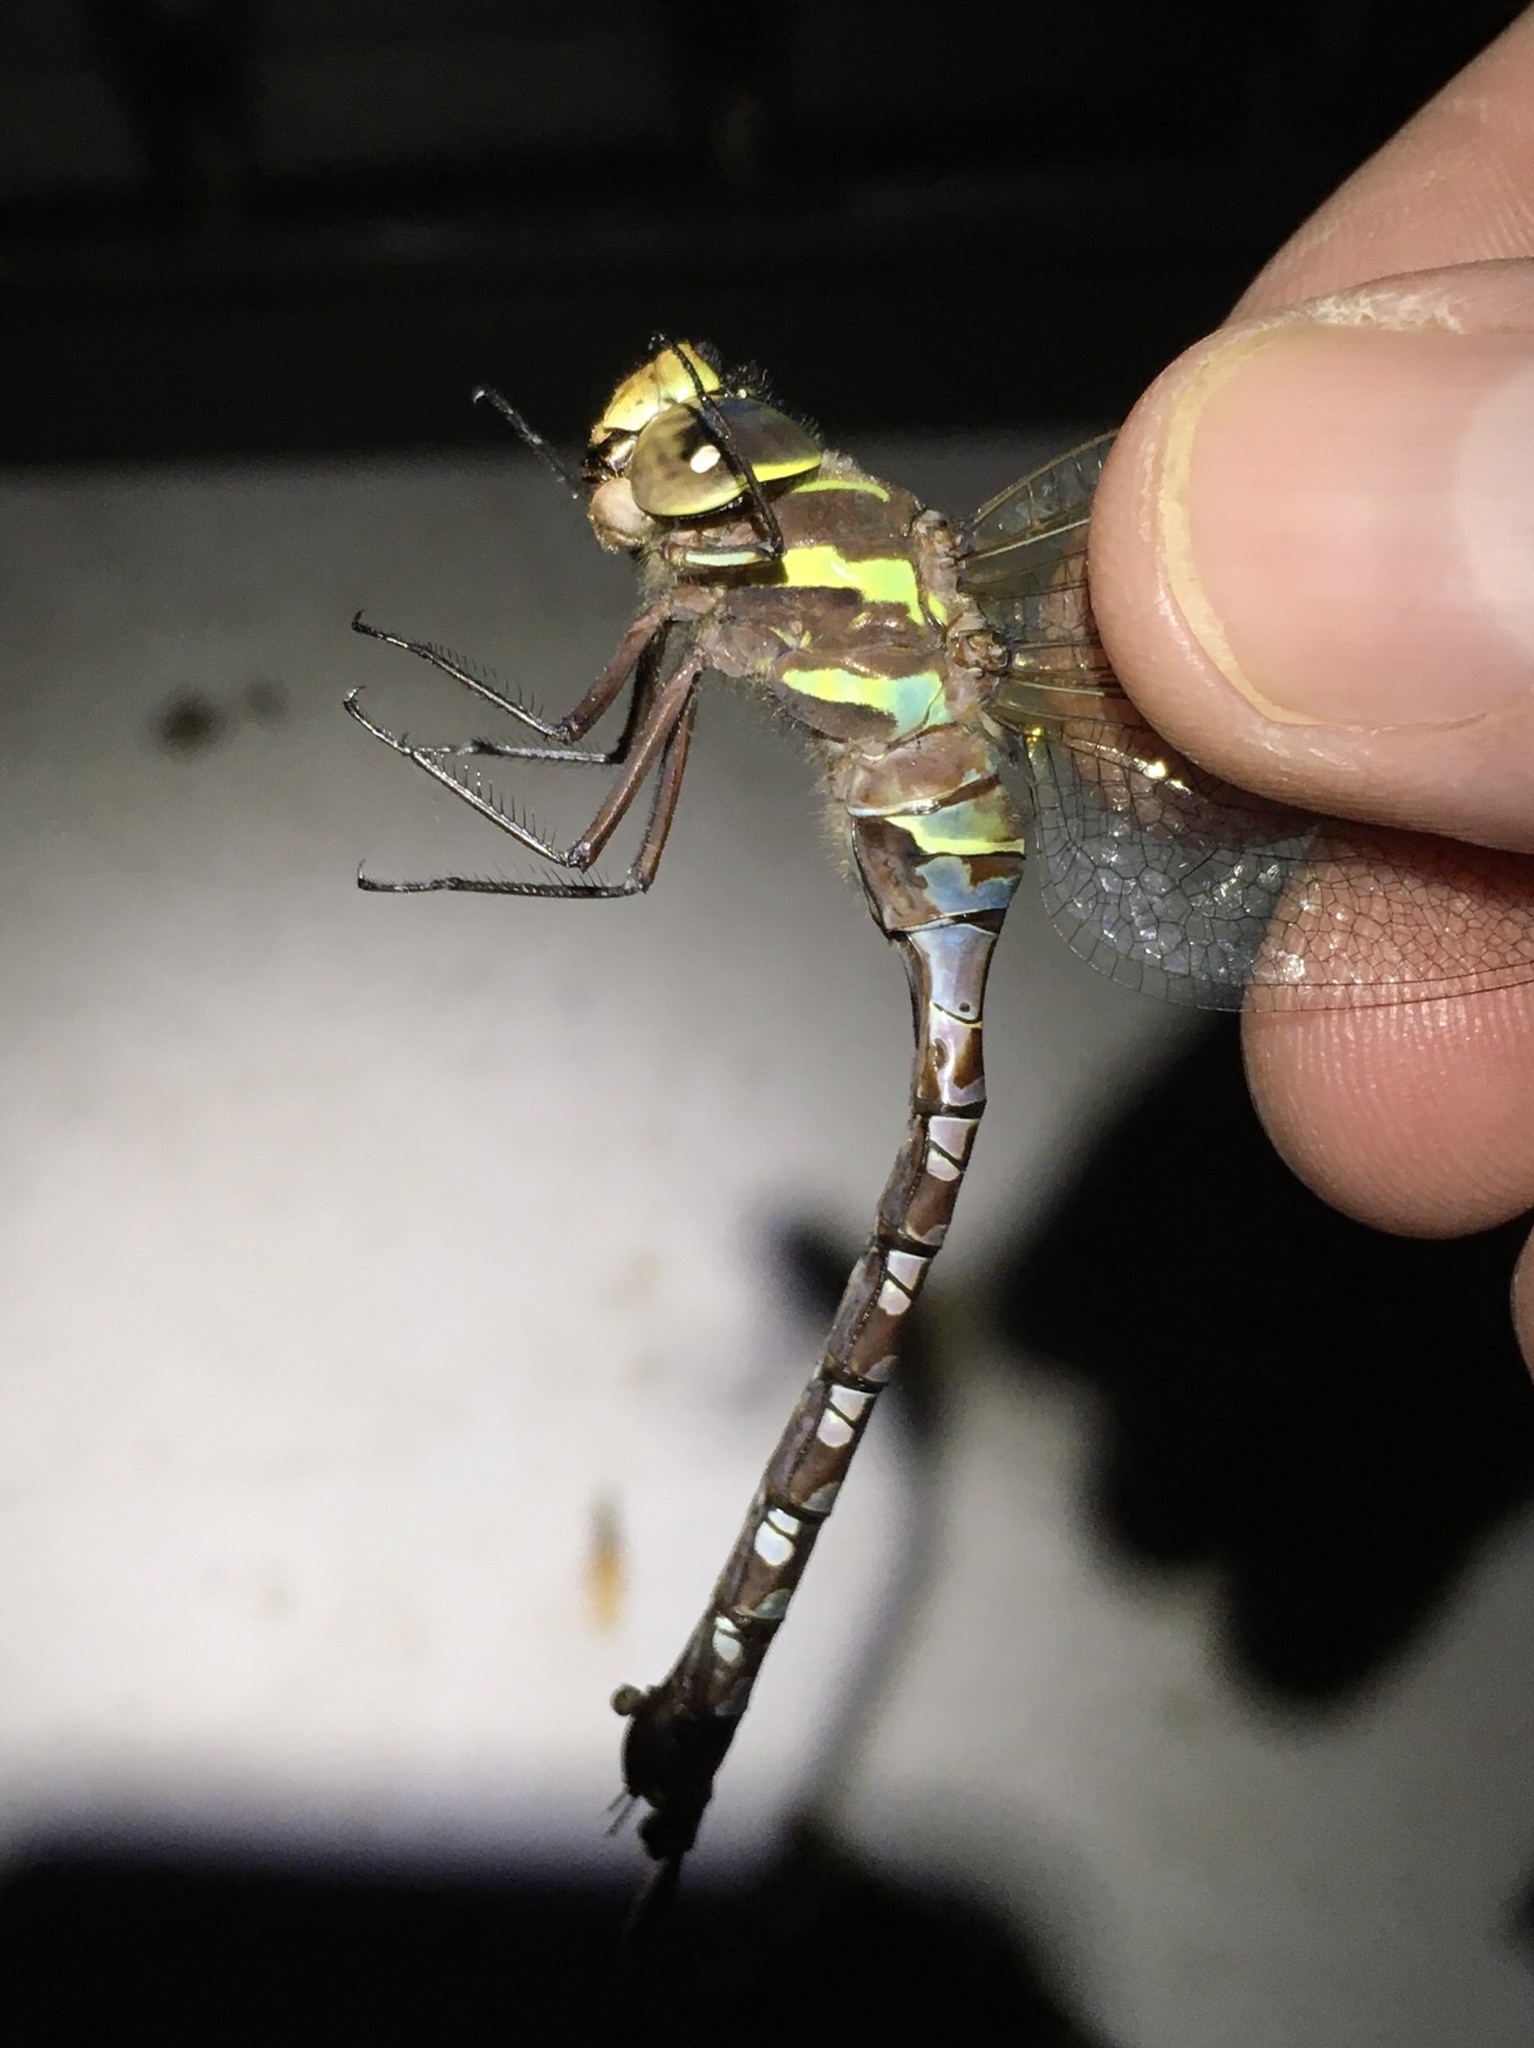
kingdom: Animalia
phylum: Arthropoda
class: Insecta
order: Odonata
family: Aeshnidae
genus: Aeshna
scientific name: Aeshna constricta
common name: Lance-tipped darner
